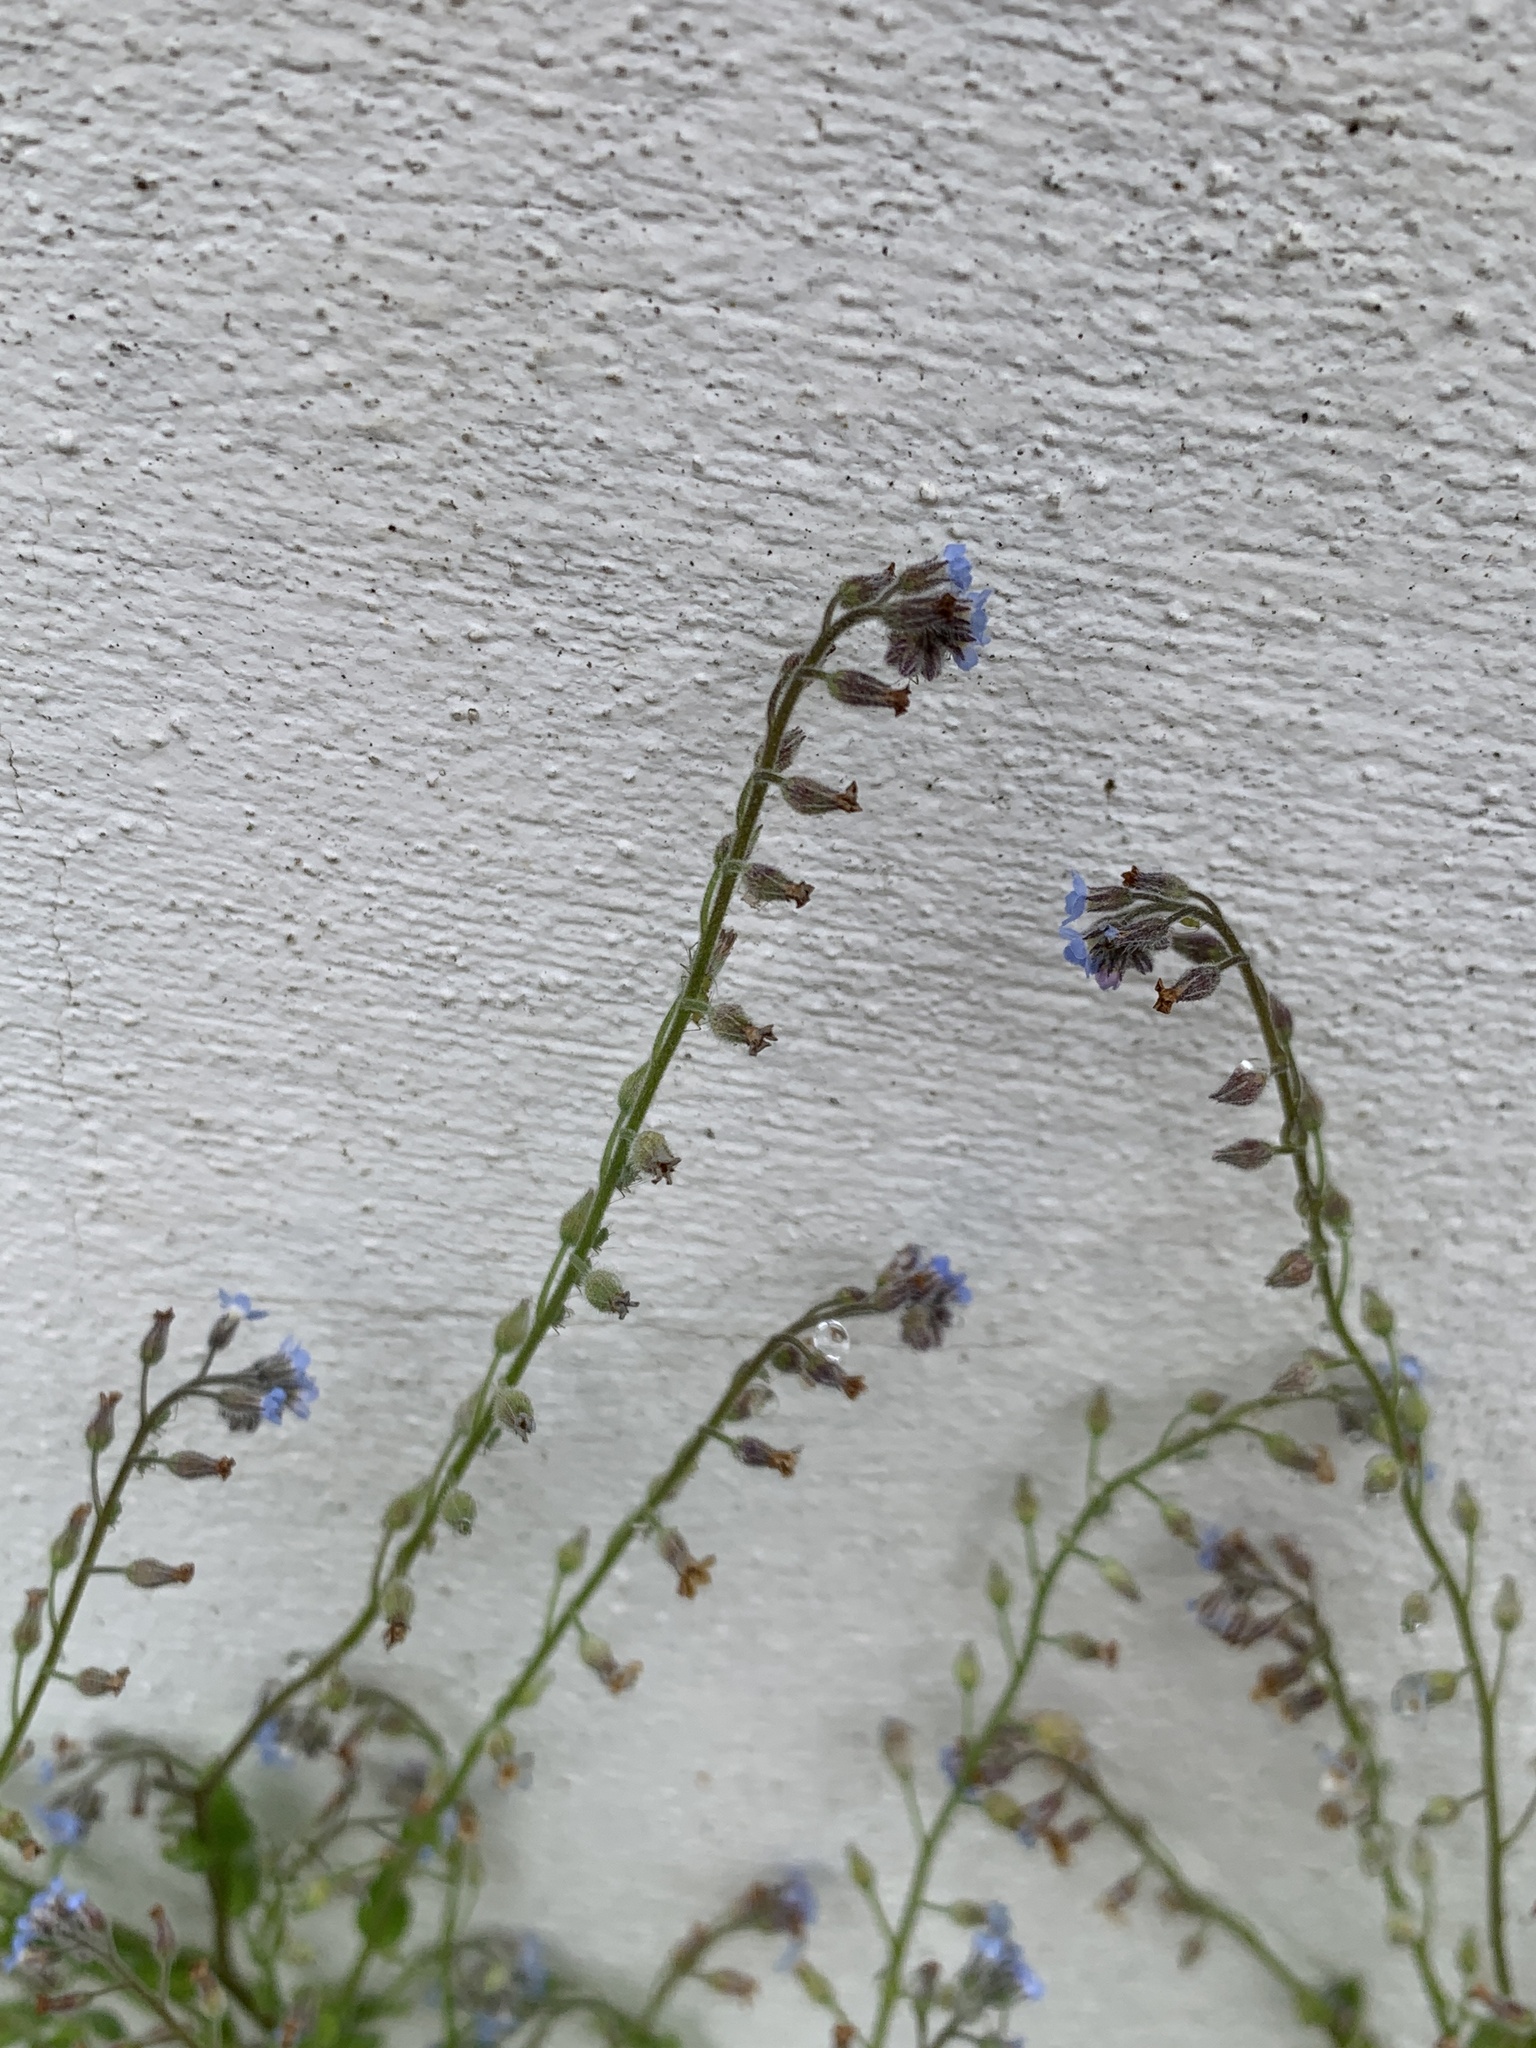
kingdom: Plantae
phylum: Tracheophyta
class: Magnoliopsida
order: Boraginales
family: Boraginaceae
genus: Myosotis
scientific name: Myosotis arvensis
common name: Field forget-me-not
